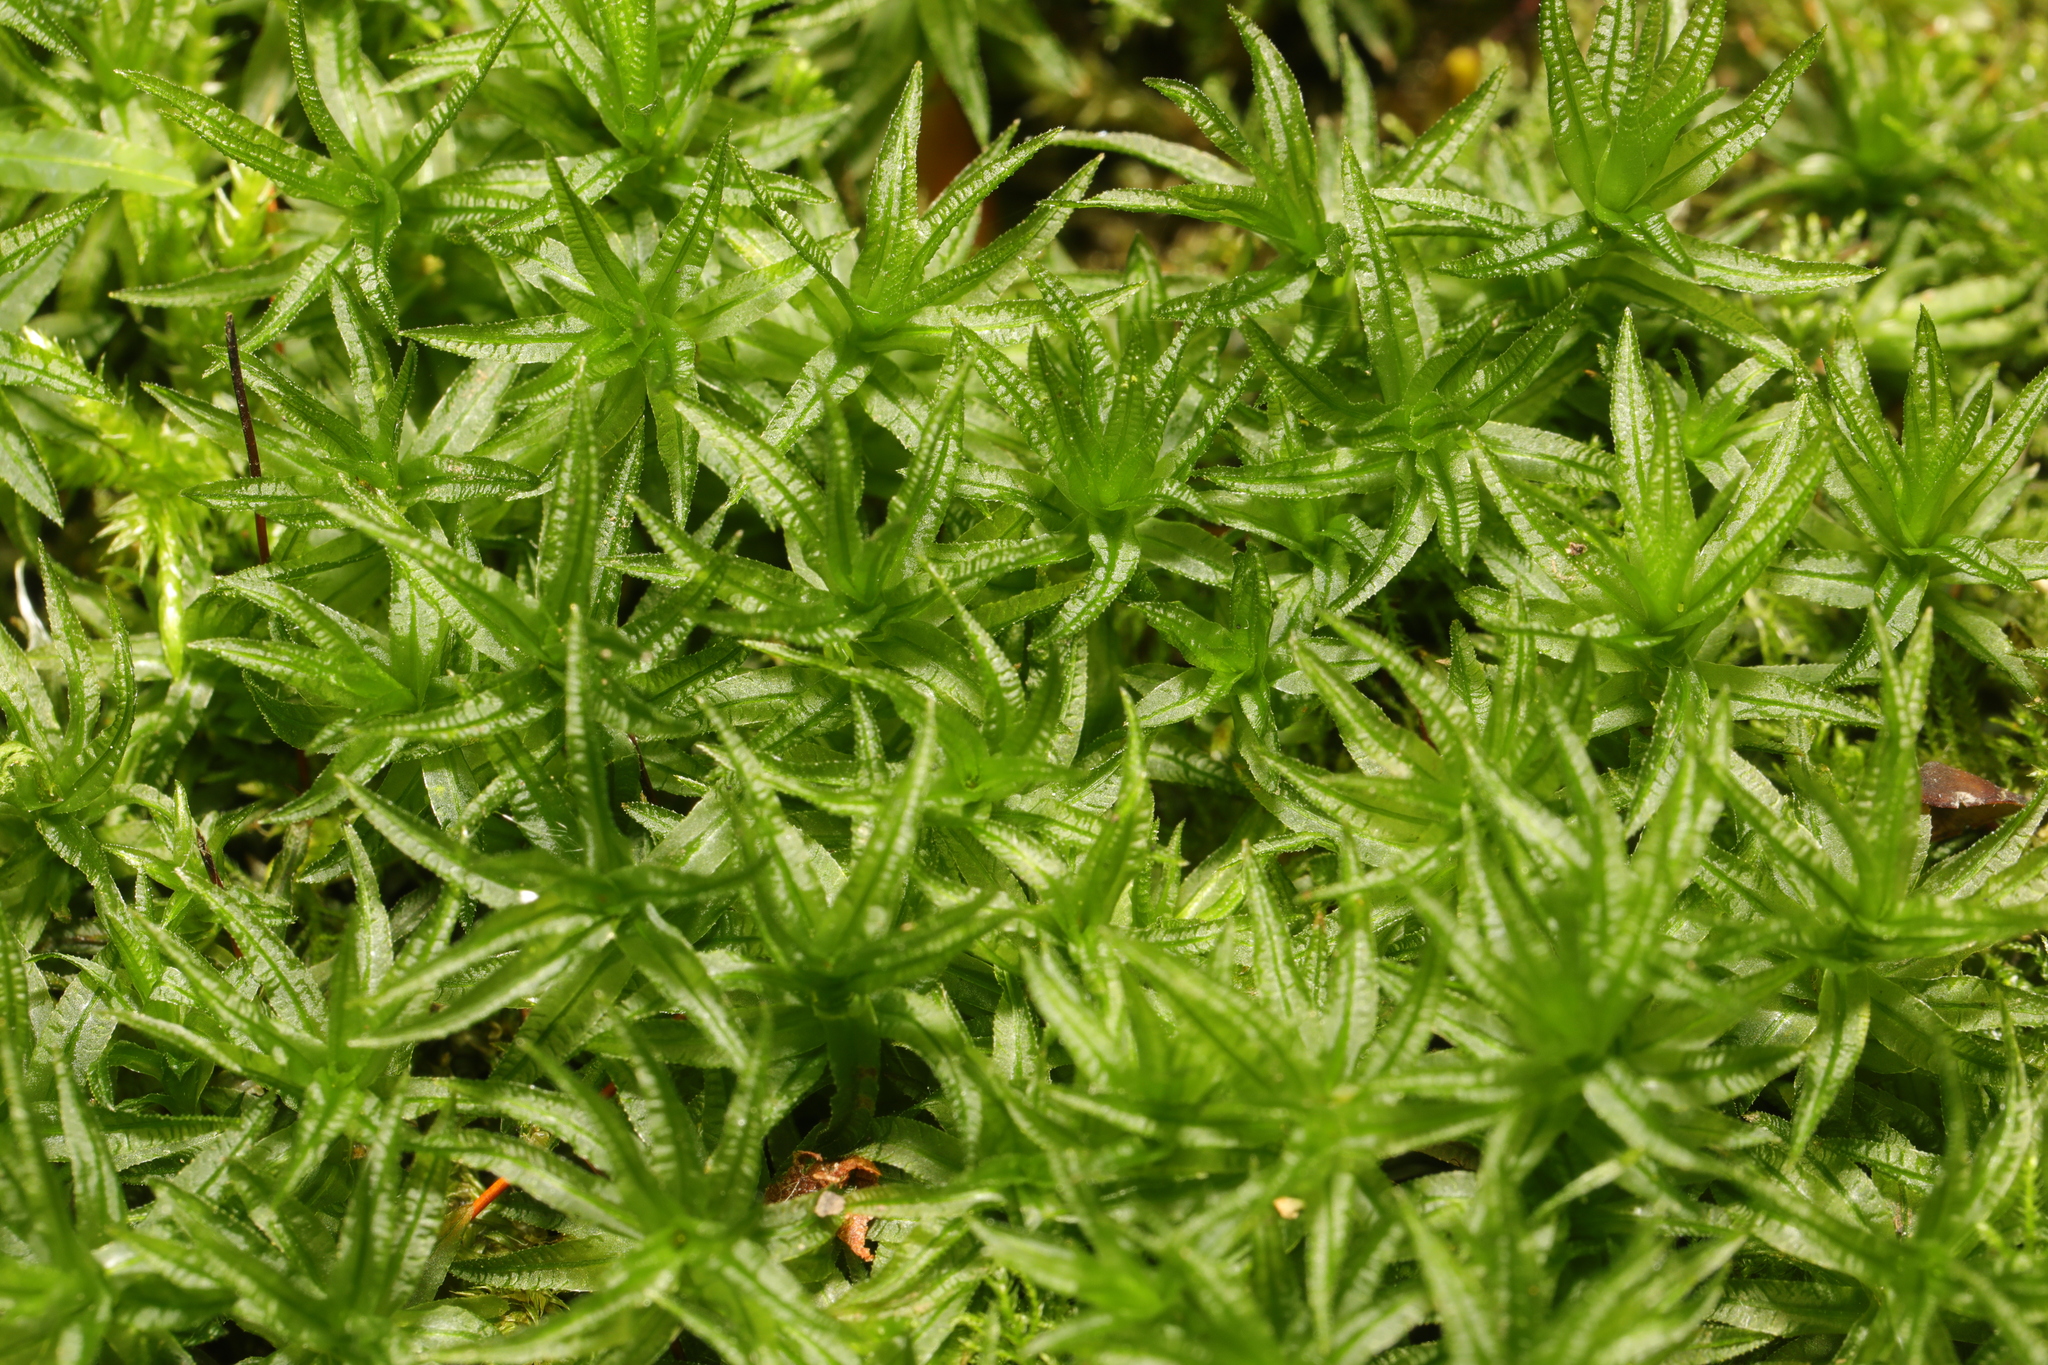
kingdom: Plantae
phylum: Bryophyta
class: Polytrichopsida
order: Polytrichales
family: Polytrichaceae
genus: Atrichum
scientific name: Atrichum undulatum
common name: Common smoothcap
